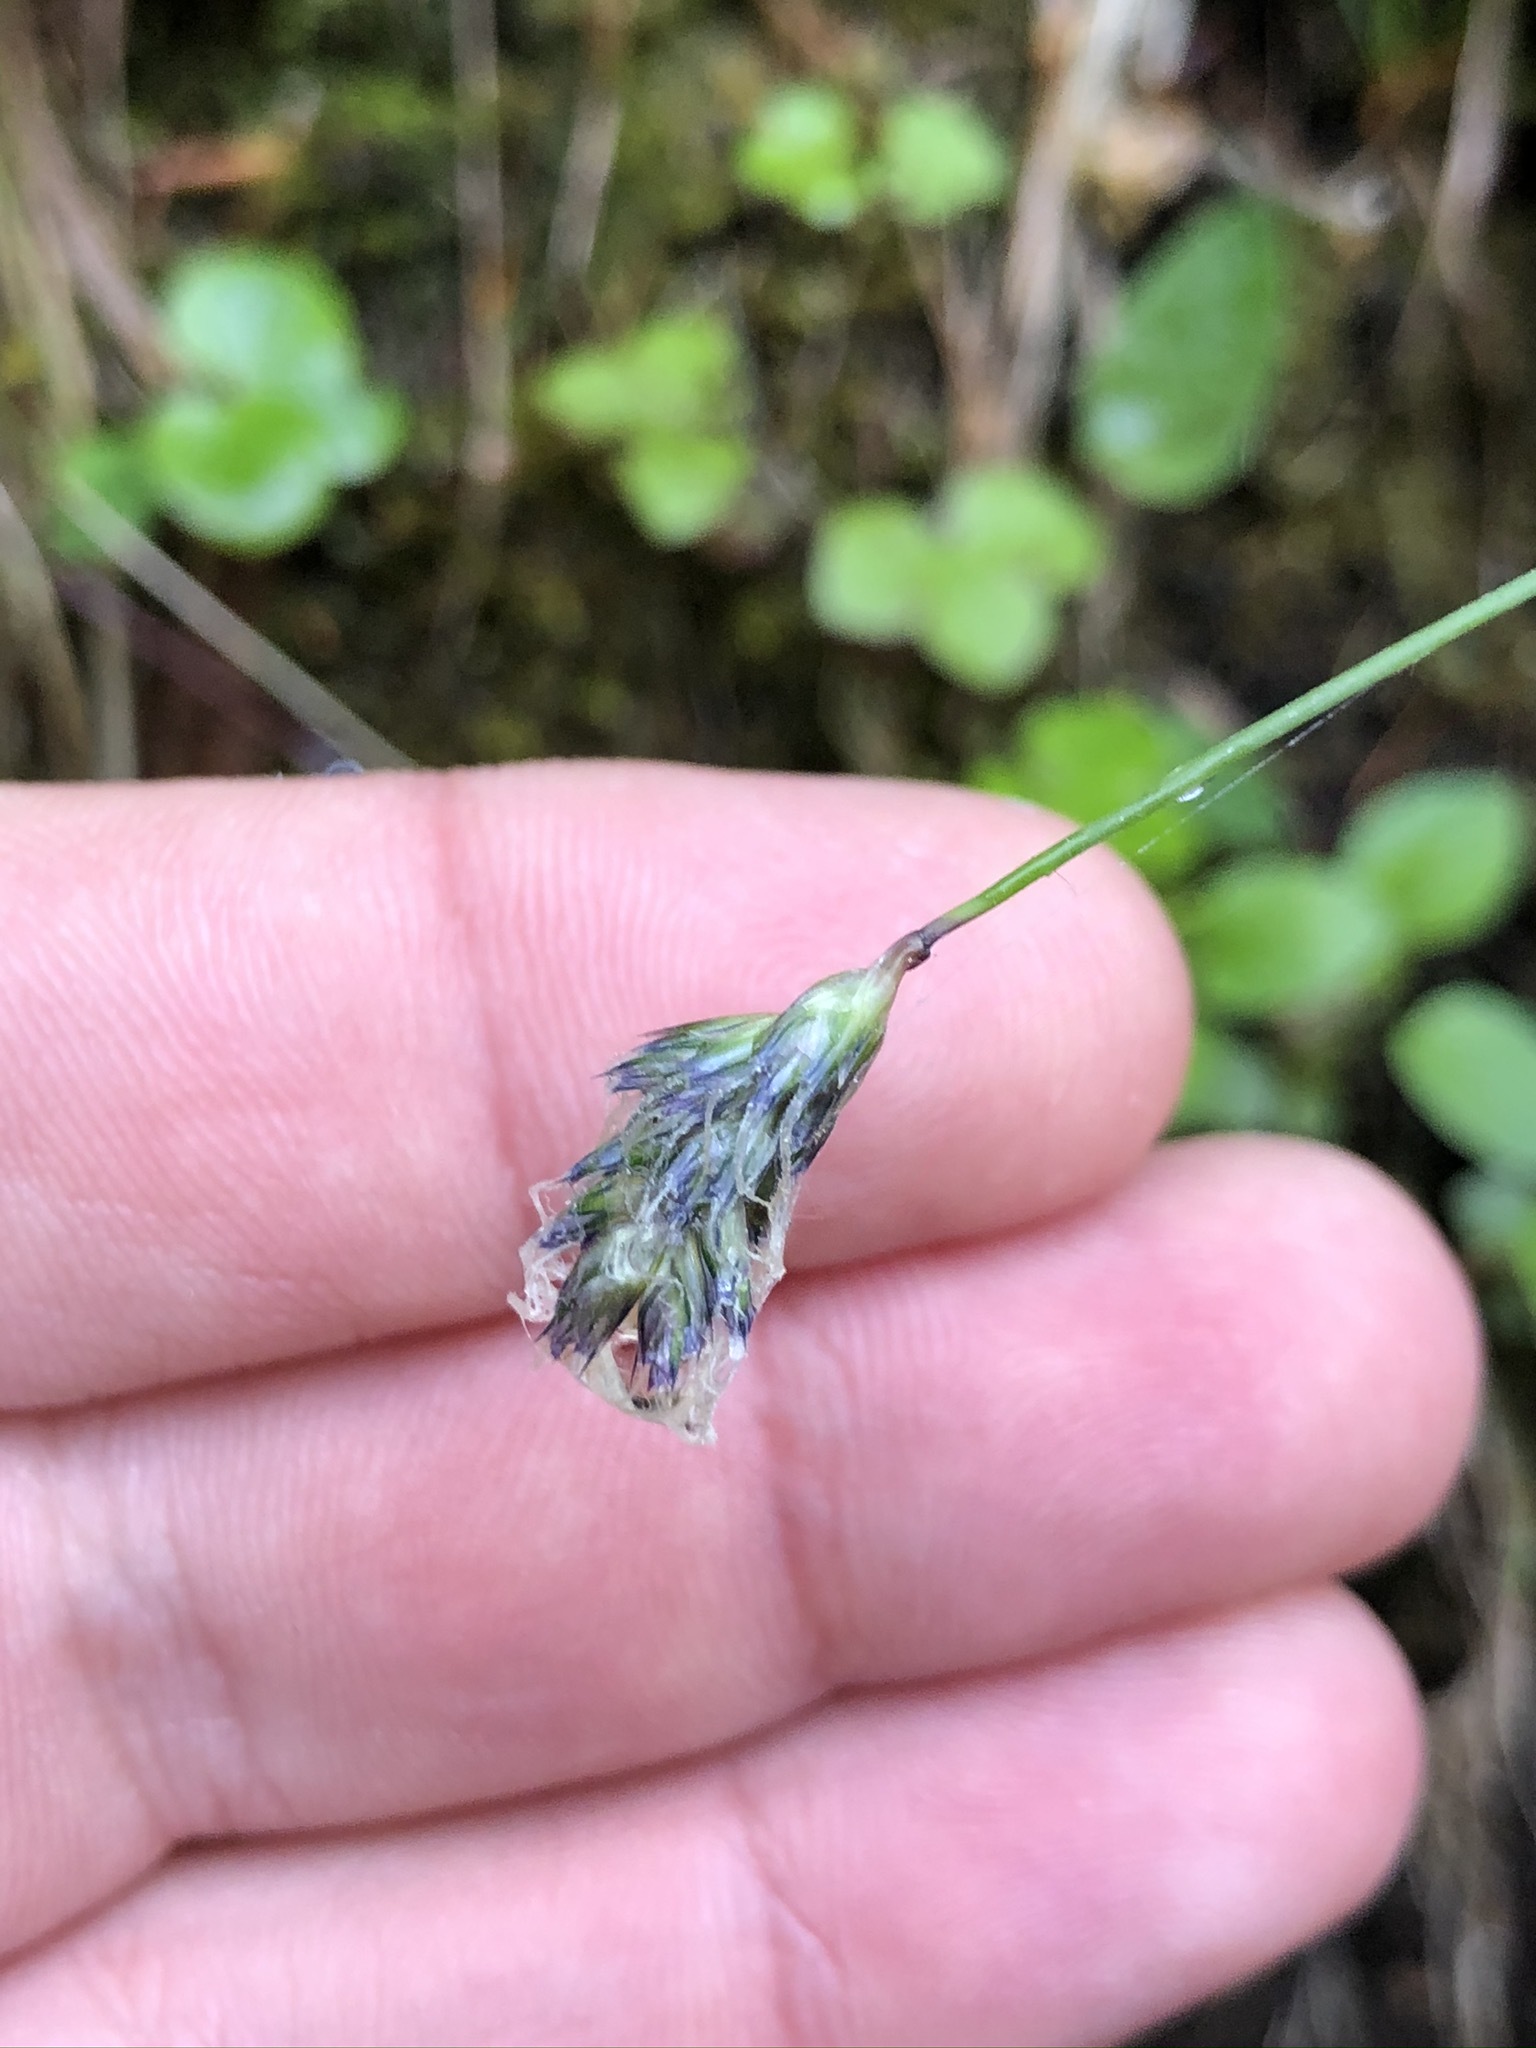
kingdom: Plantae
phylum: Tracheophyta
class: Liliopsida
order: Poales
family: Poaceae
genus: Sesleria
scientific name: Sesleria caerulea
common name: Blue moor-grass
